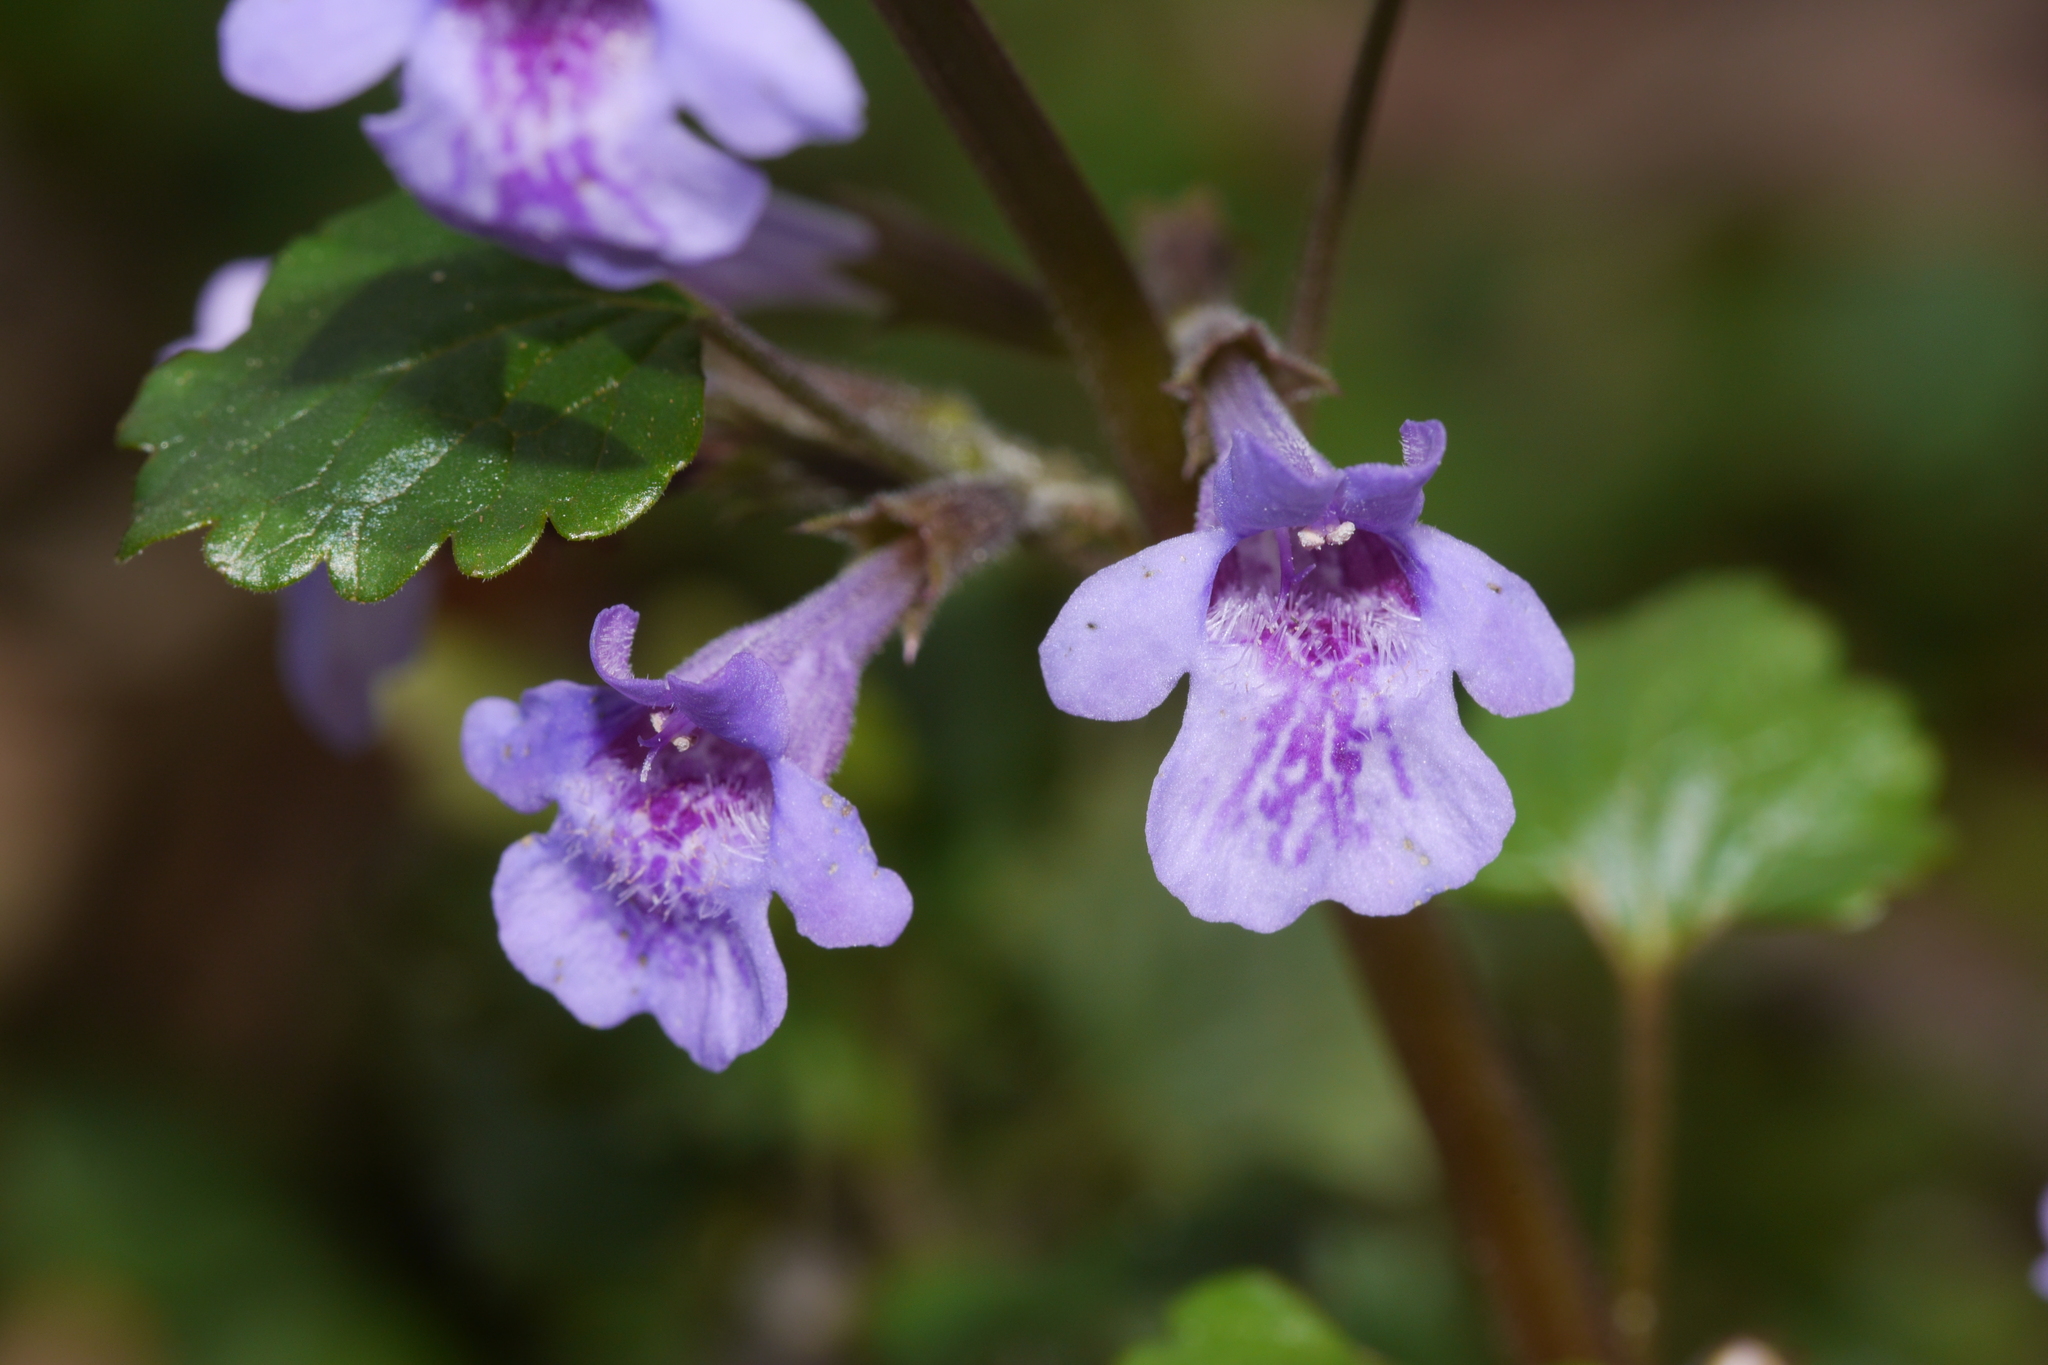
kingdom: Plantae
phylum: Tracheophyta
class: Magnoliopsida
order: Lamiales
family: Lamiaceae
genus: Glechoma
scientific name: Glechoma hederacea
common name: Ground ivy
